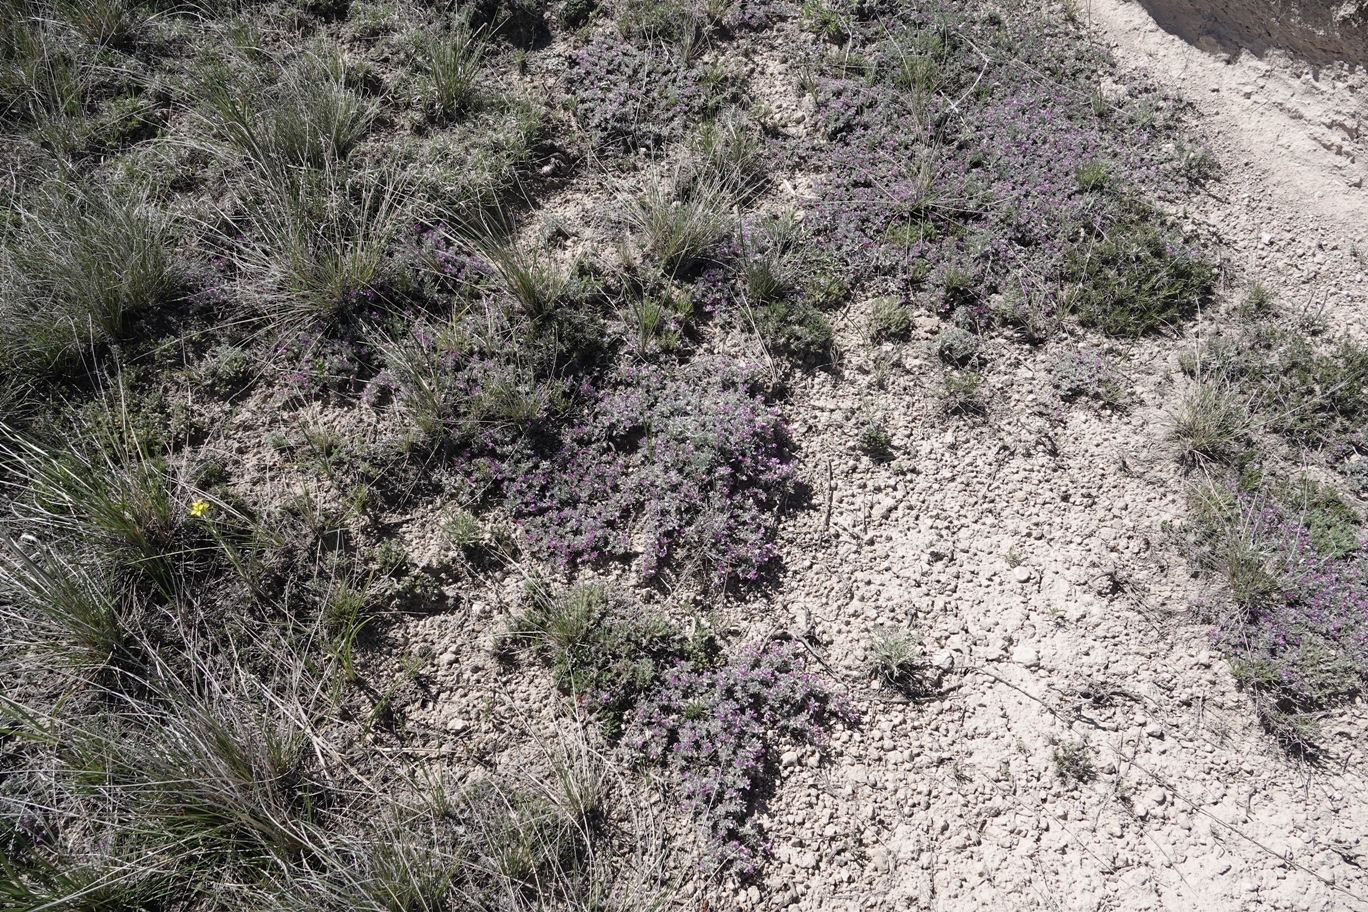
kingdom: Plantae
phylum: Tracheophyta
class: Magnoliopsida
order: Fabales
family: Fabaceae
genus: Astragalus
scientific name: Astragalus sericoleucus
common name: Silky orophaca
